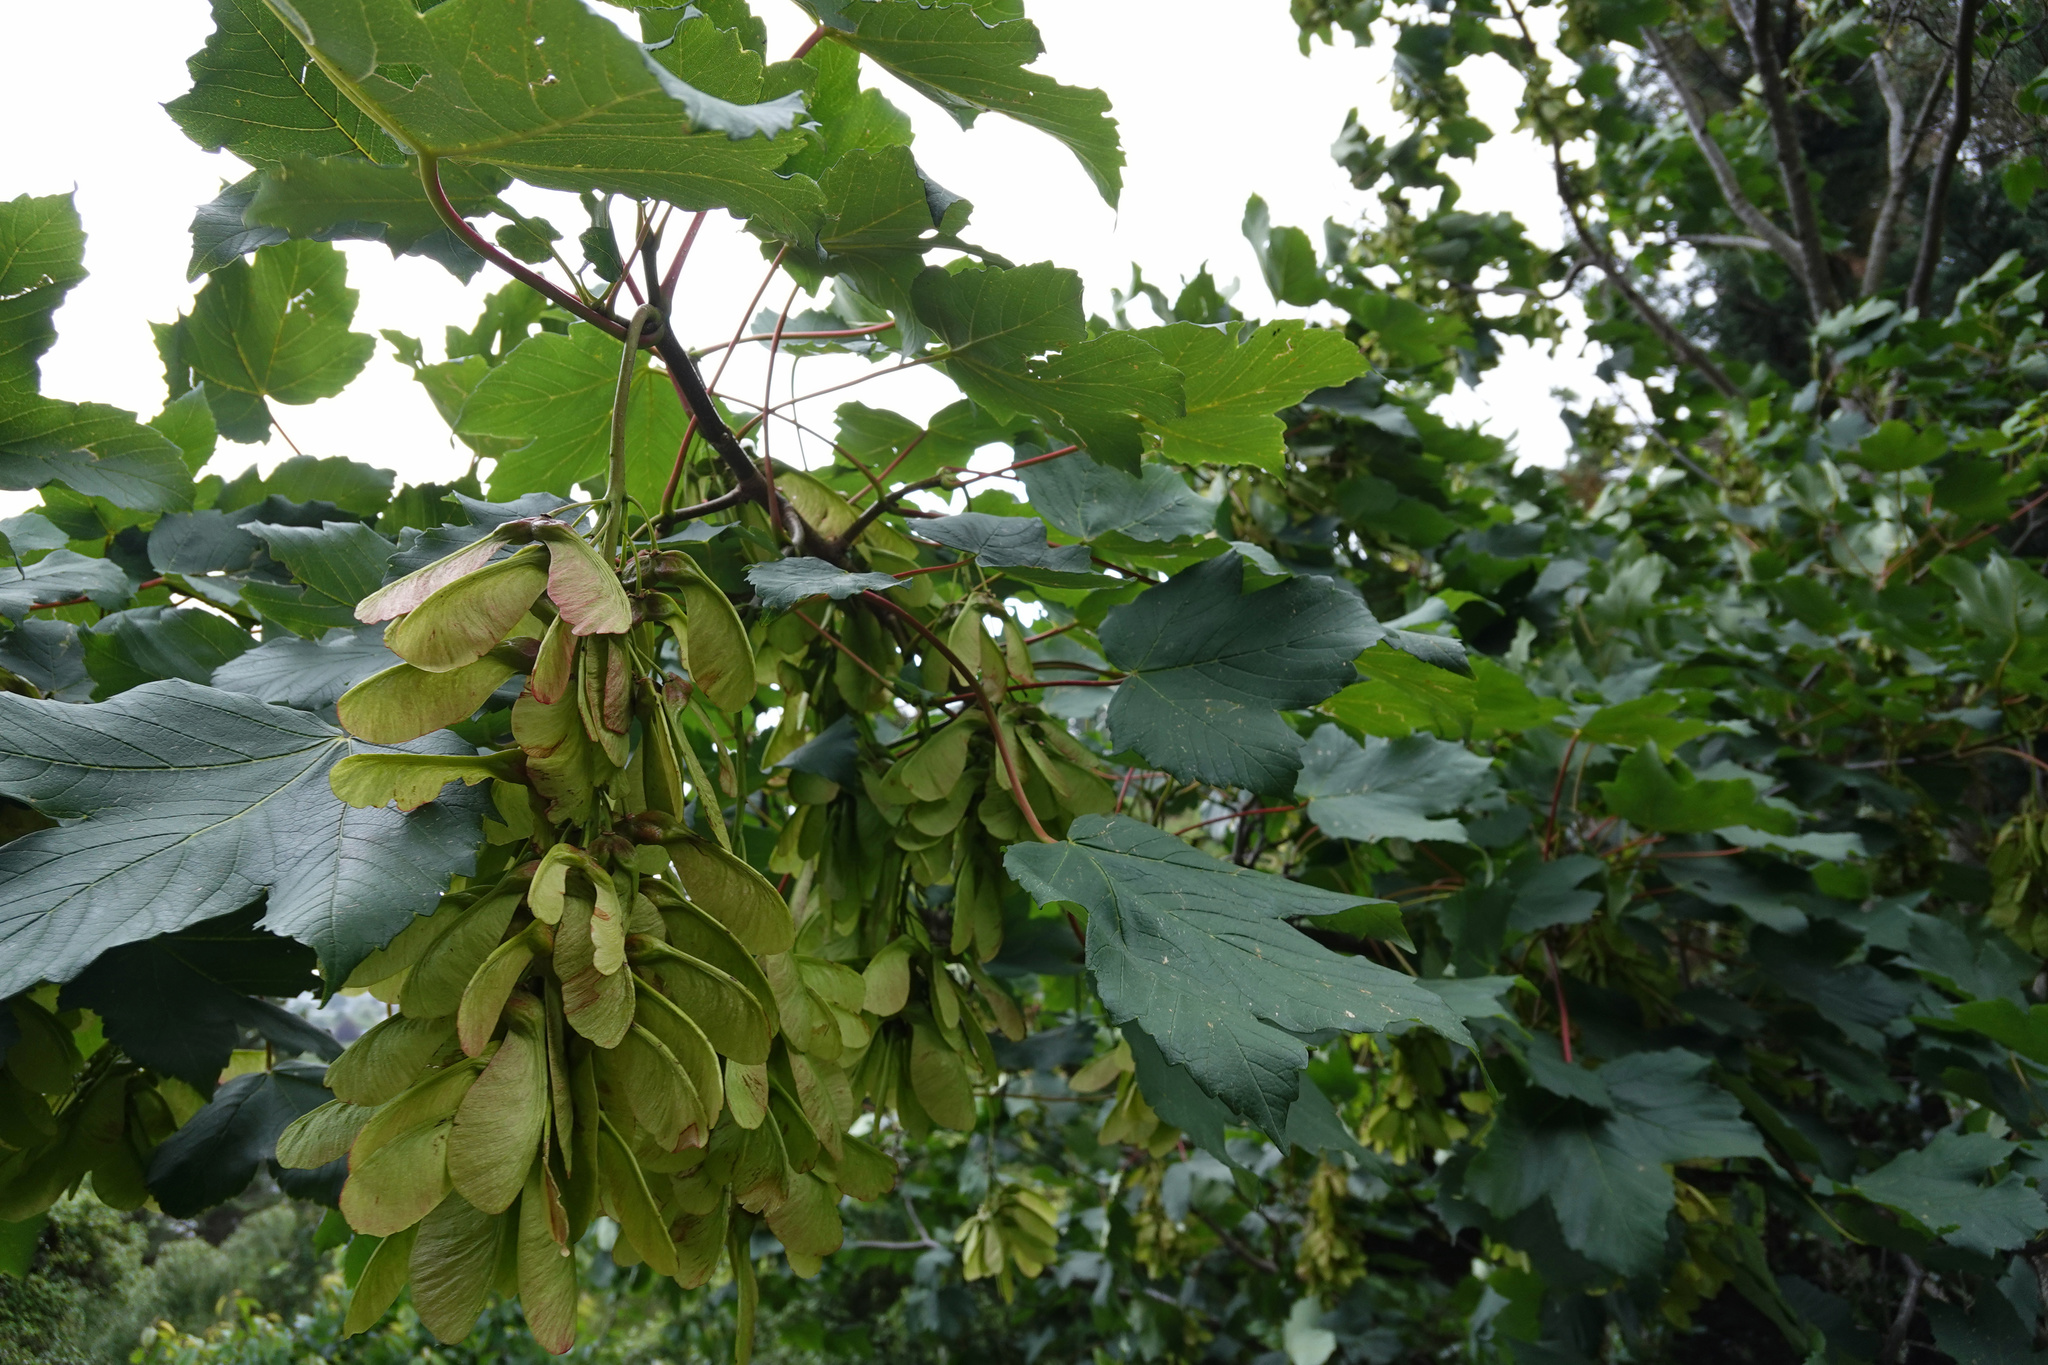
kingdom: Plantae
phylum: Tracheophyta
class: Magnoliopsida
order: Sapindales
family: Sapindaceae
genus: Acer
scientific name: Acer pseudoplatanus
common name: Sycamore
